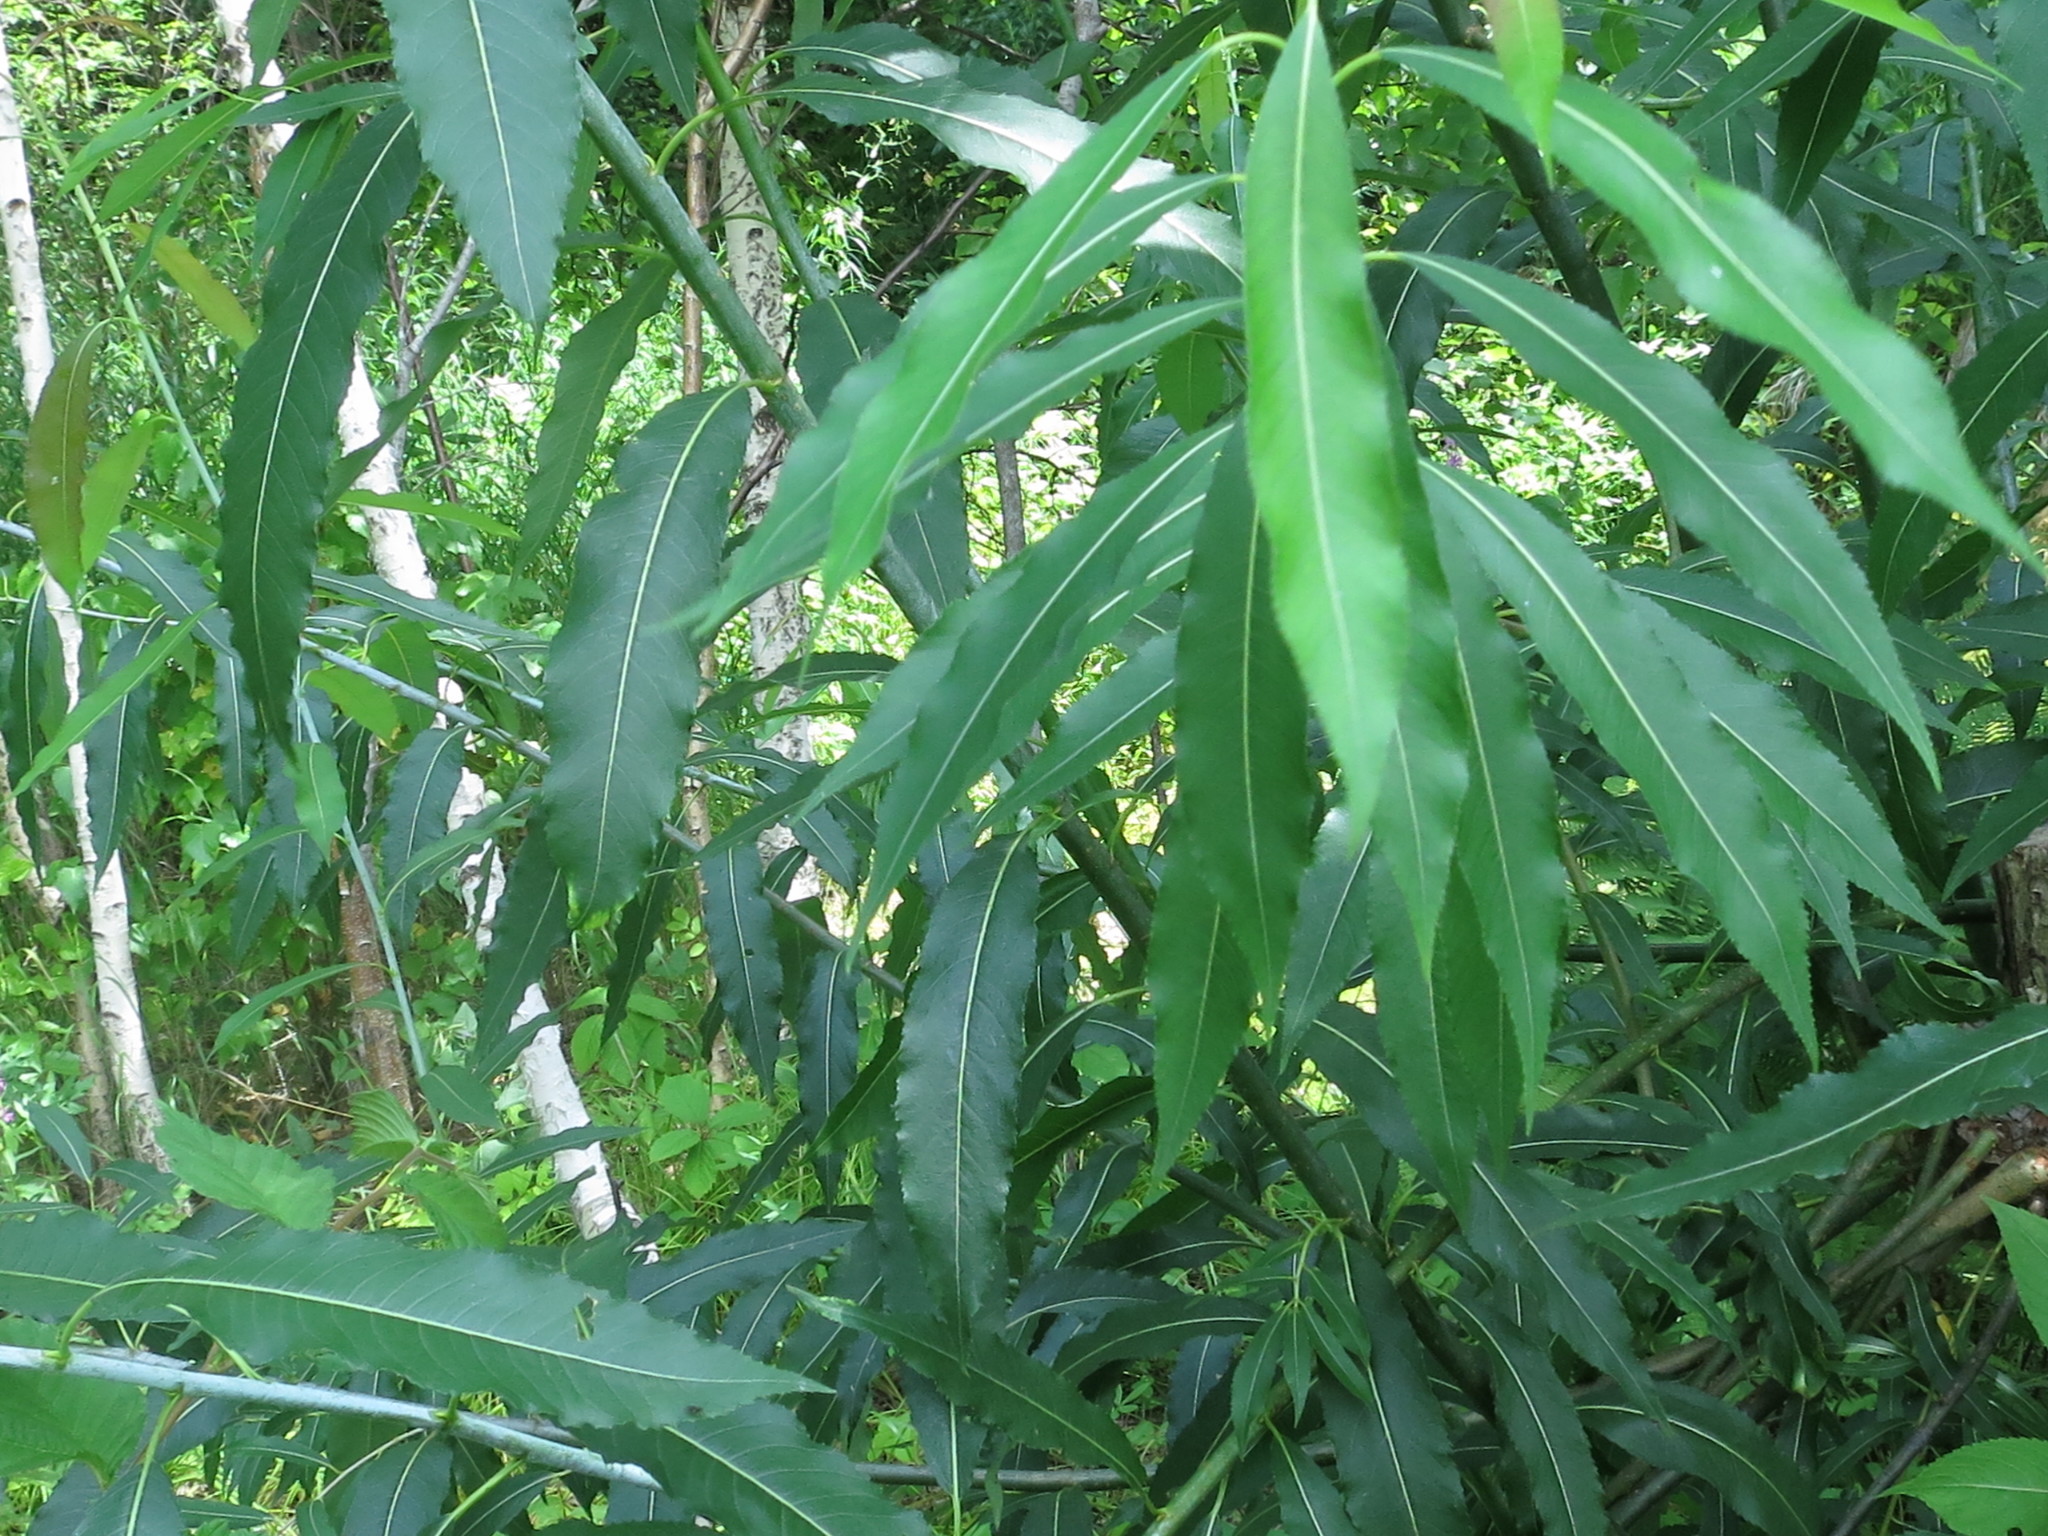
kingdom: Plantae
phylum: Tracheophyta
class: Magnoliopsida
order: Malpighiales
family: Salicaceae
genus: Salix
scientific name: Salix subfragilis
